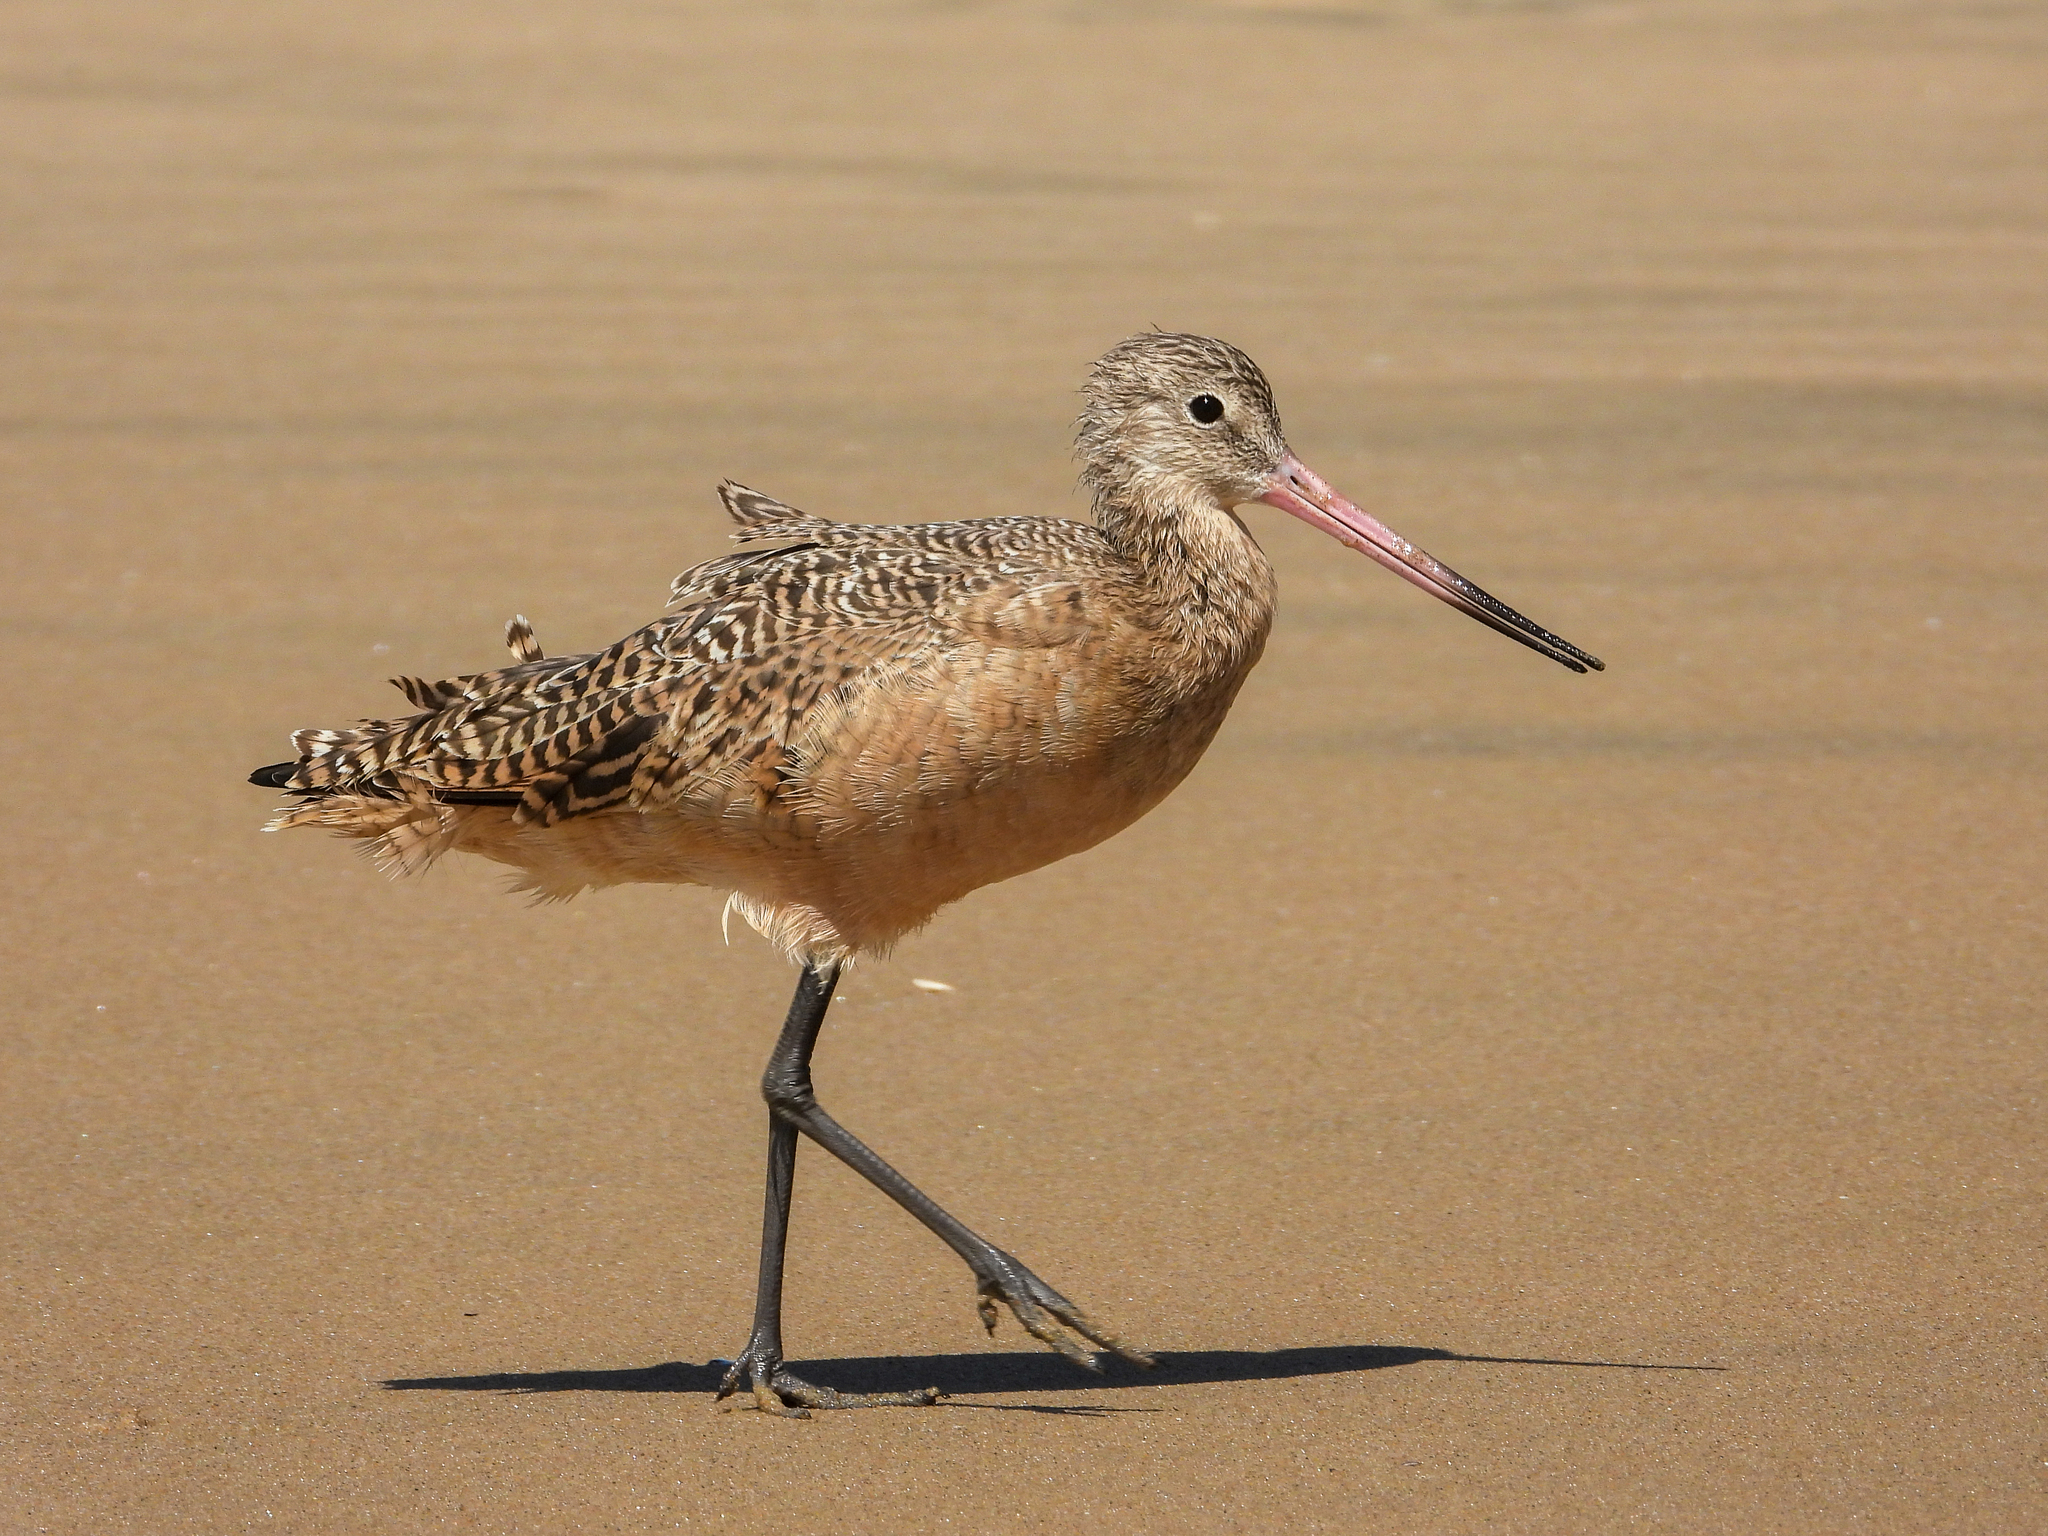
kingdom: Animalia
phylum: Chordata
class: Aves
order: Charadriiformes
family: Scolopacidae
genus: Limosa
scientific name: Limosa fedoa
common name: Marbled godwit
